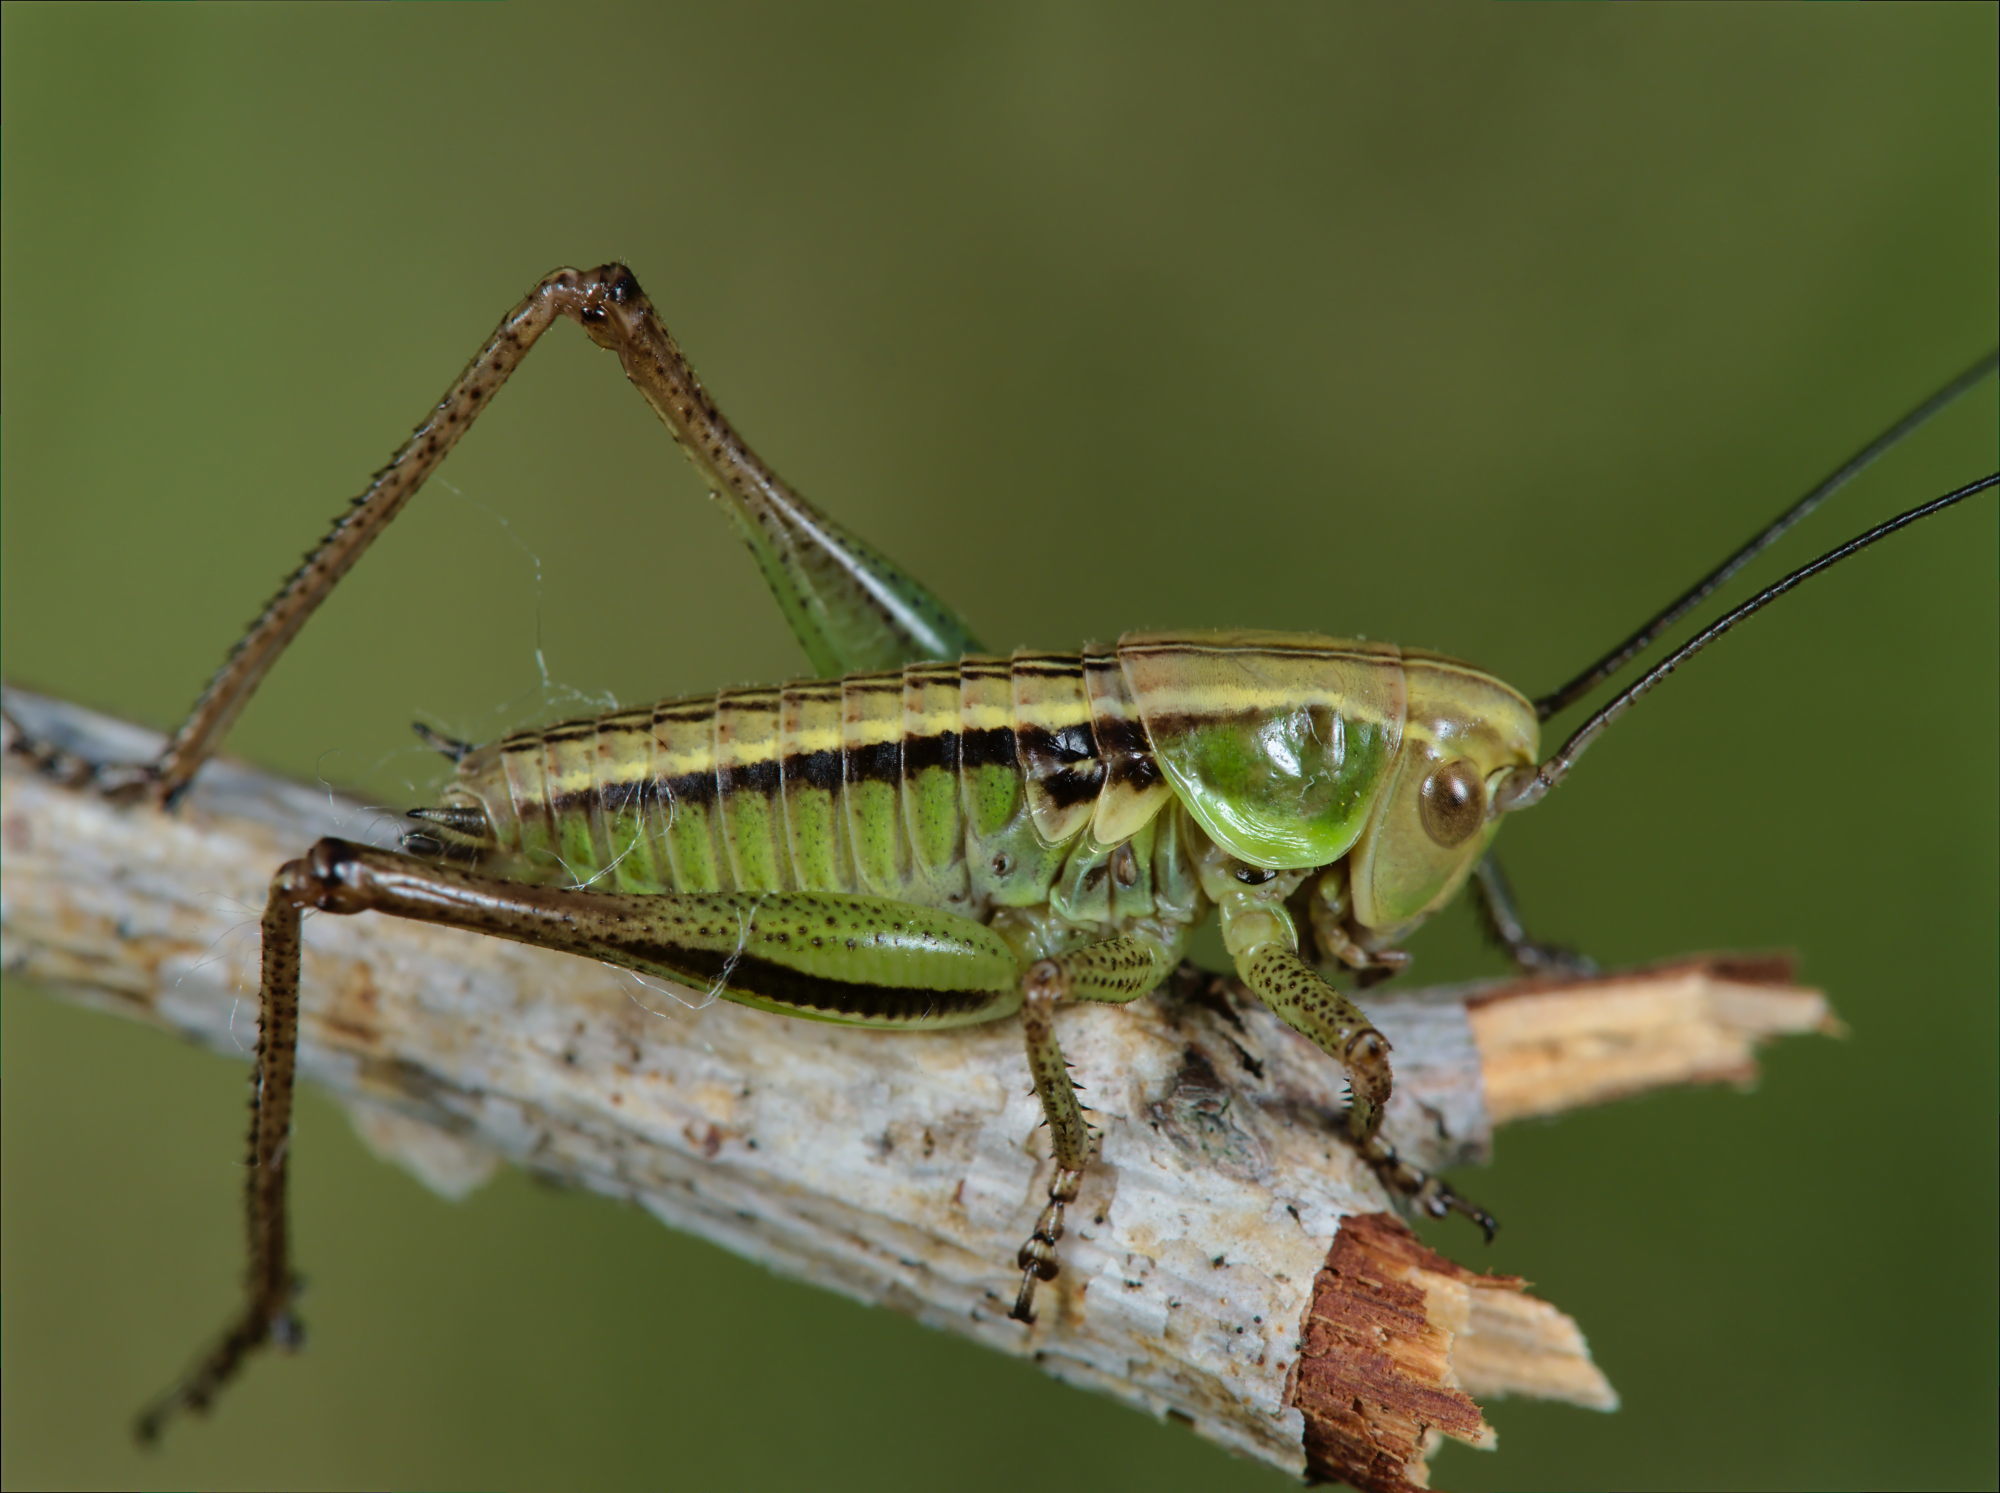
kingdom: Animalia
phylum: Arthropoda
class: Insecta
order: Orthoptera
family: Tettigoniidae
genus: Roeseliana
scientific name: Roeseliana roeselii
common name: Roesel's bush cricket
